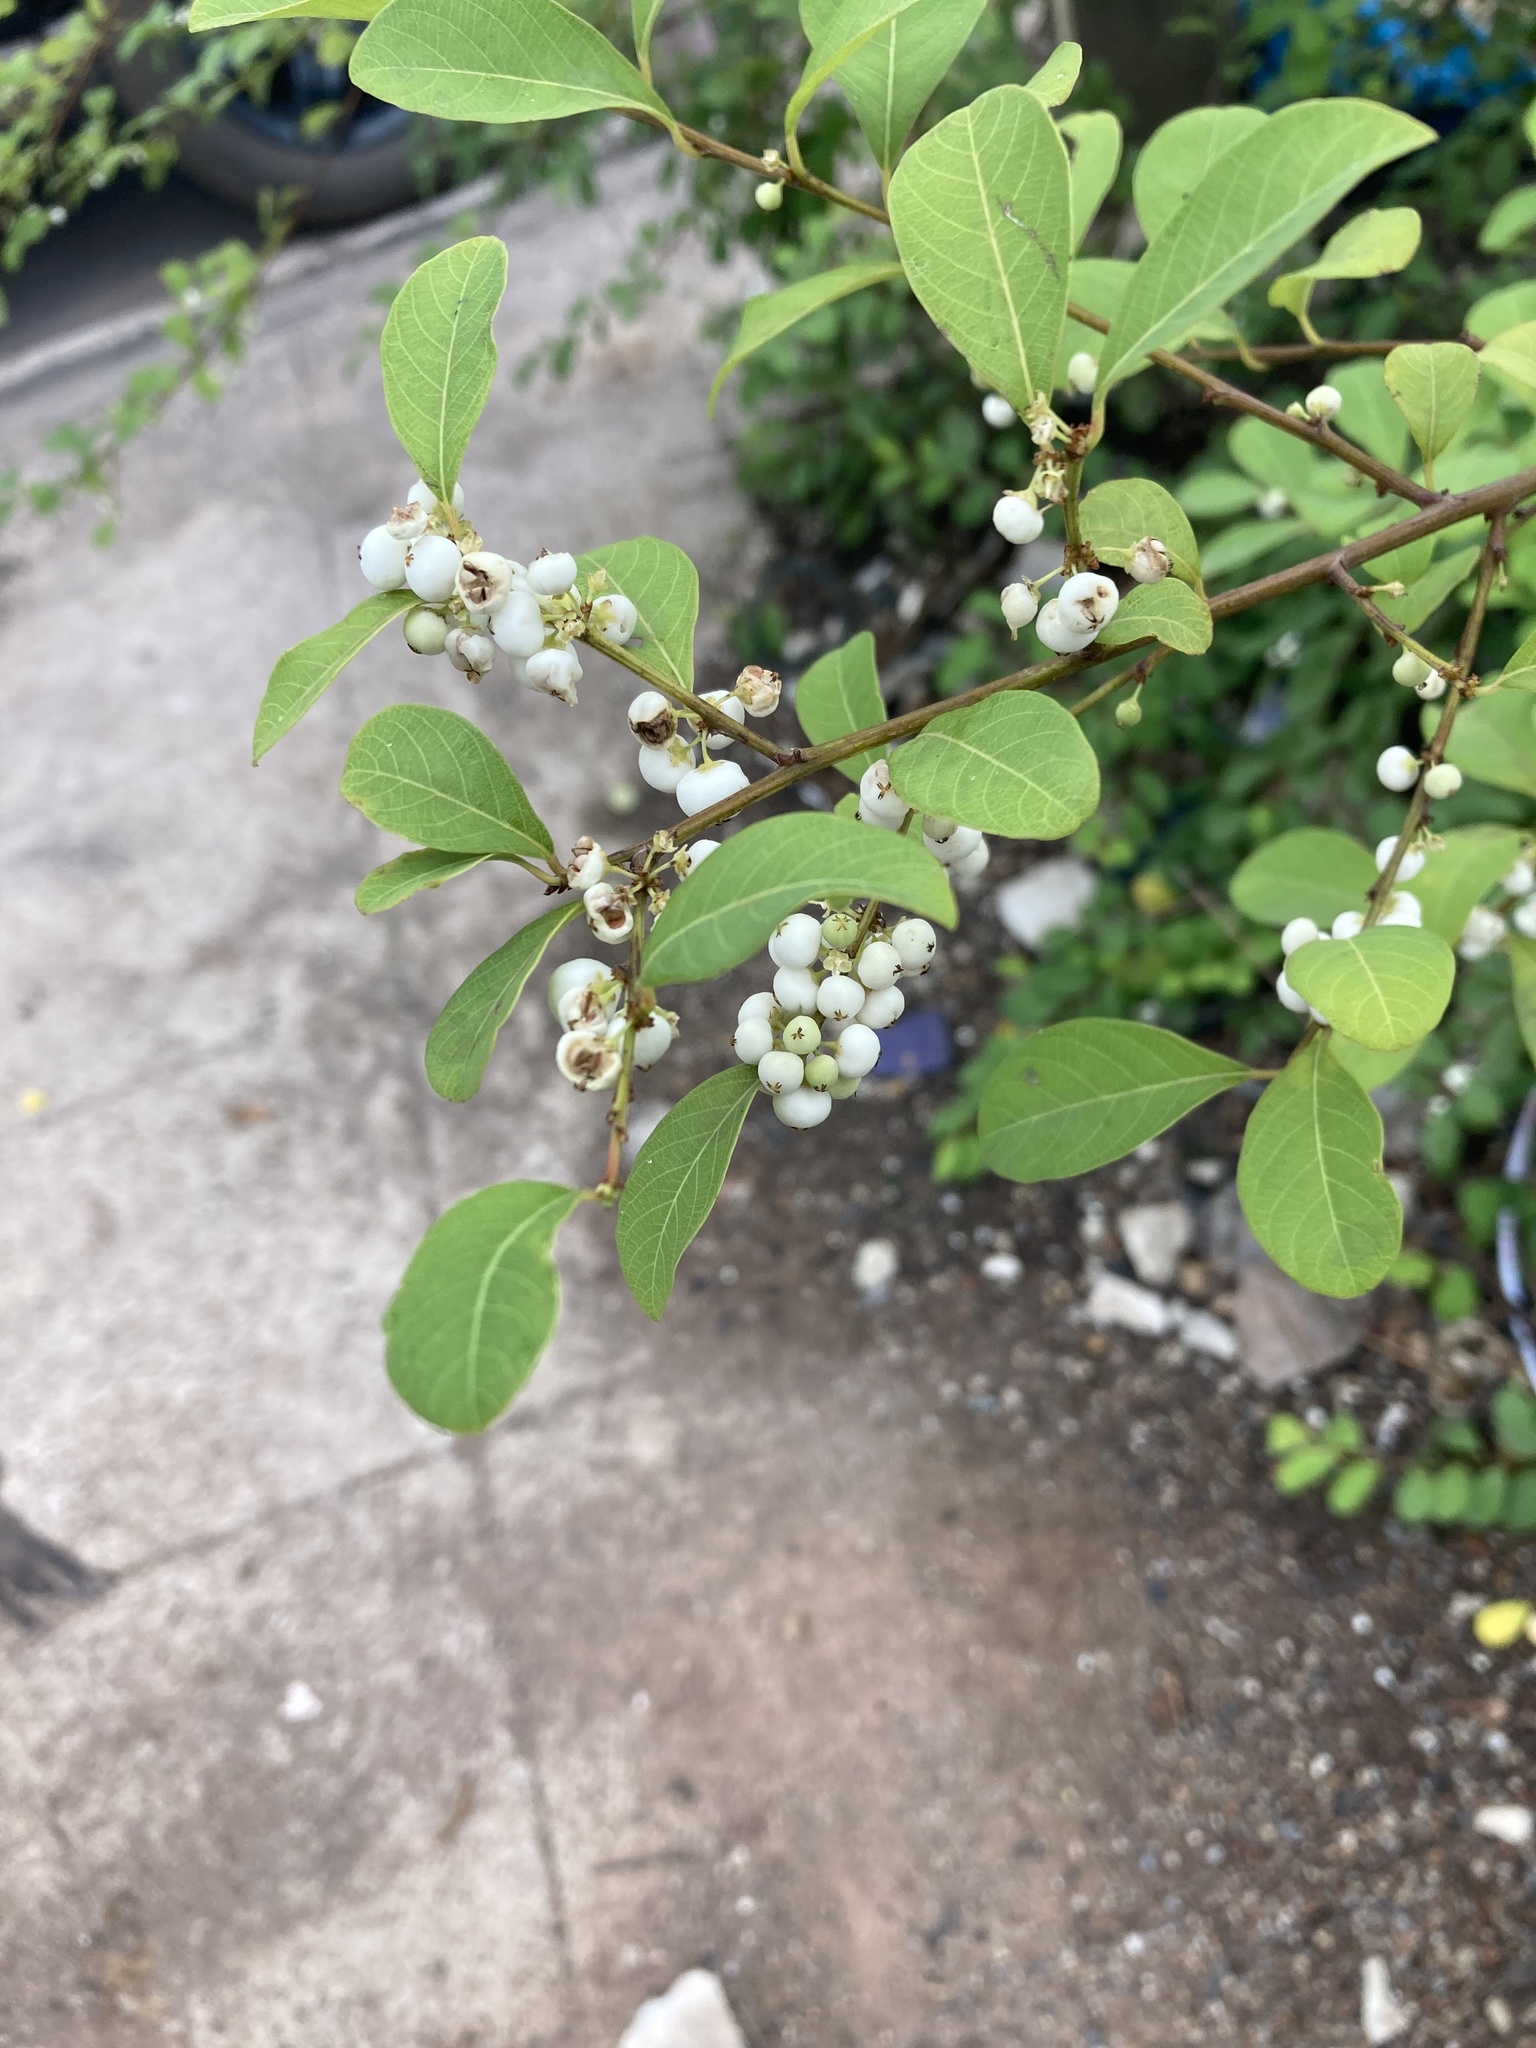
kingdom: Plantae
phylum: Tracheophyta
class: Magnoliopsida
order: Malpighiales
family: Phyllanthaceae
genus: Flueggea
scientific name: Flueggea virosa
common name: Common bushweed
